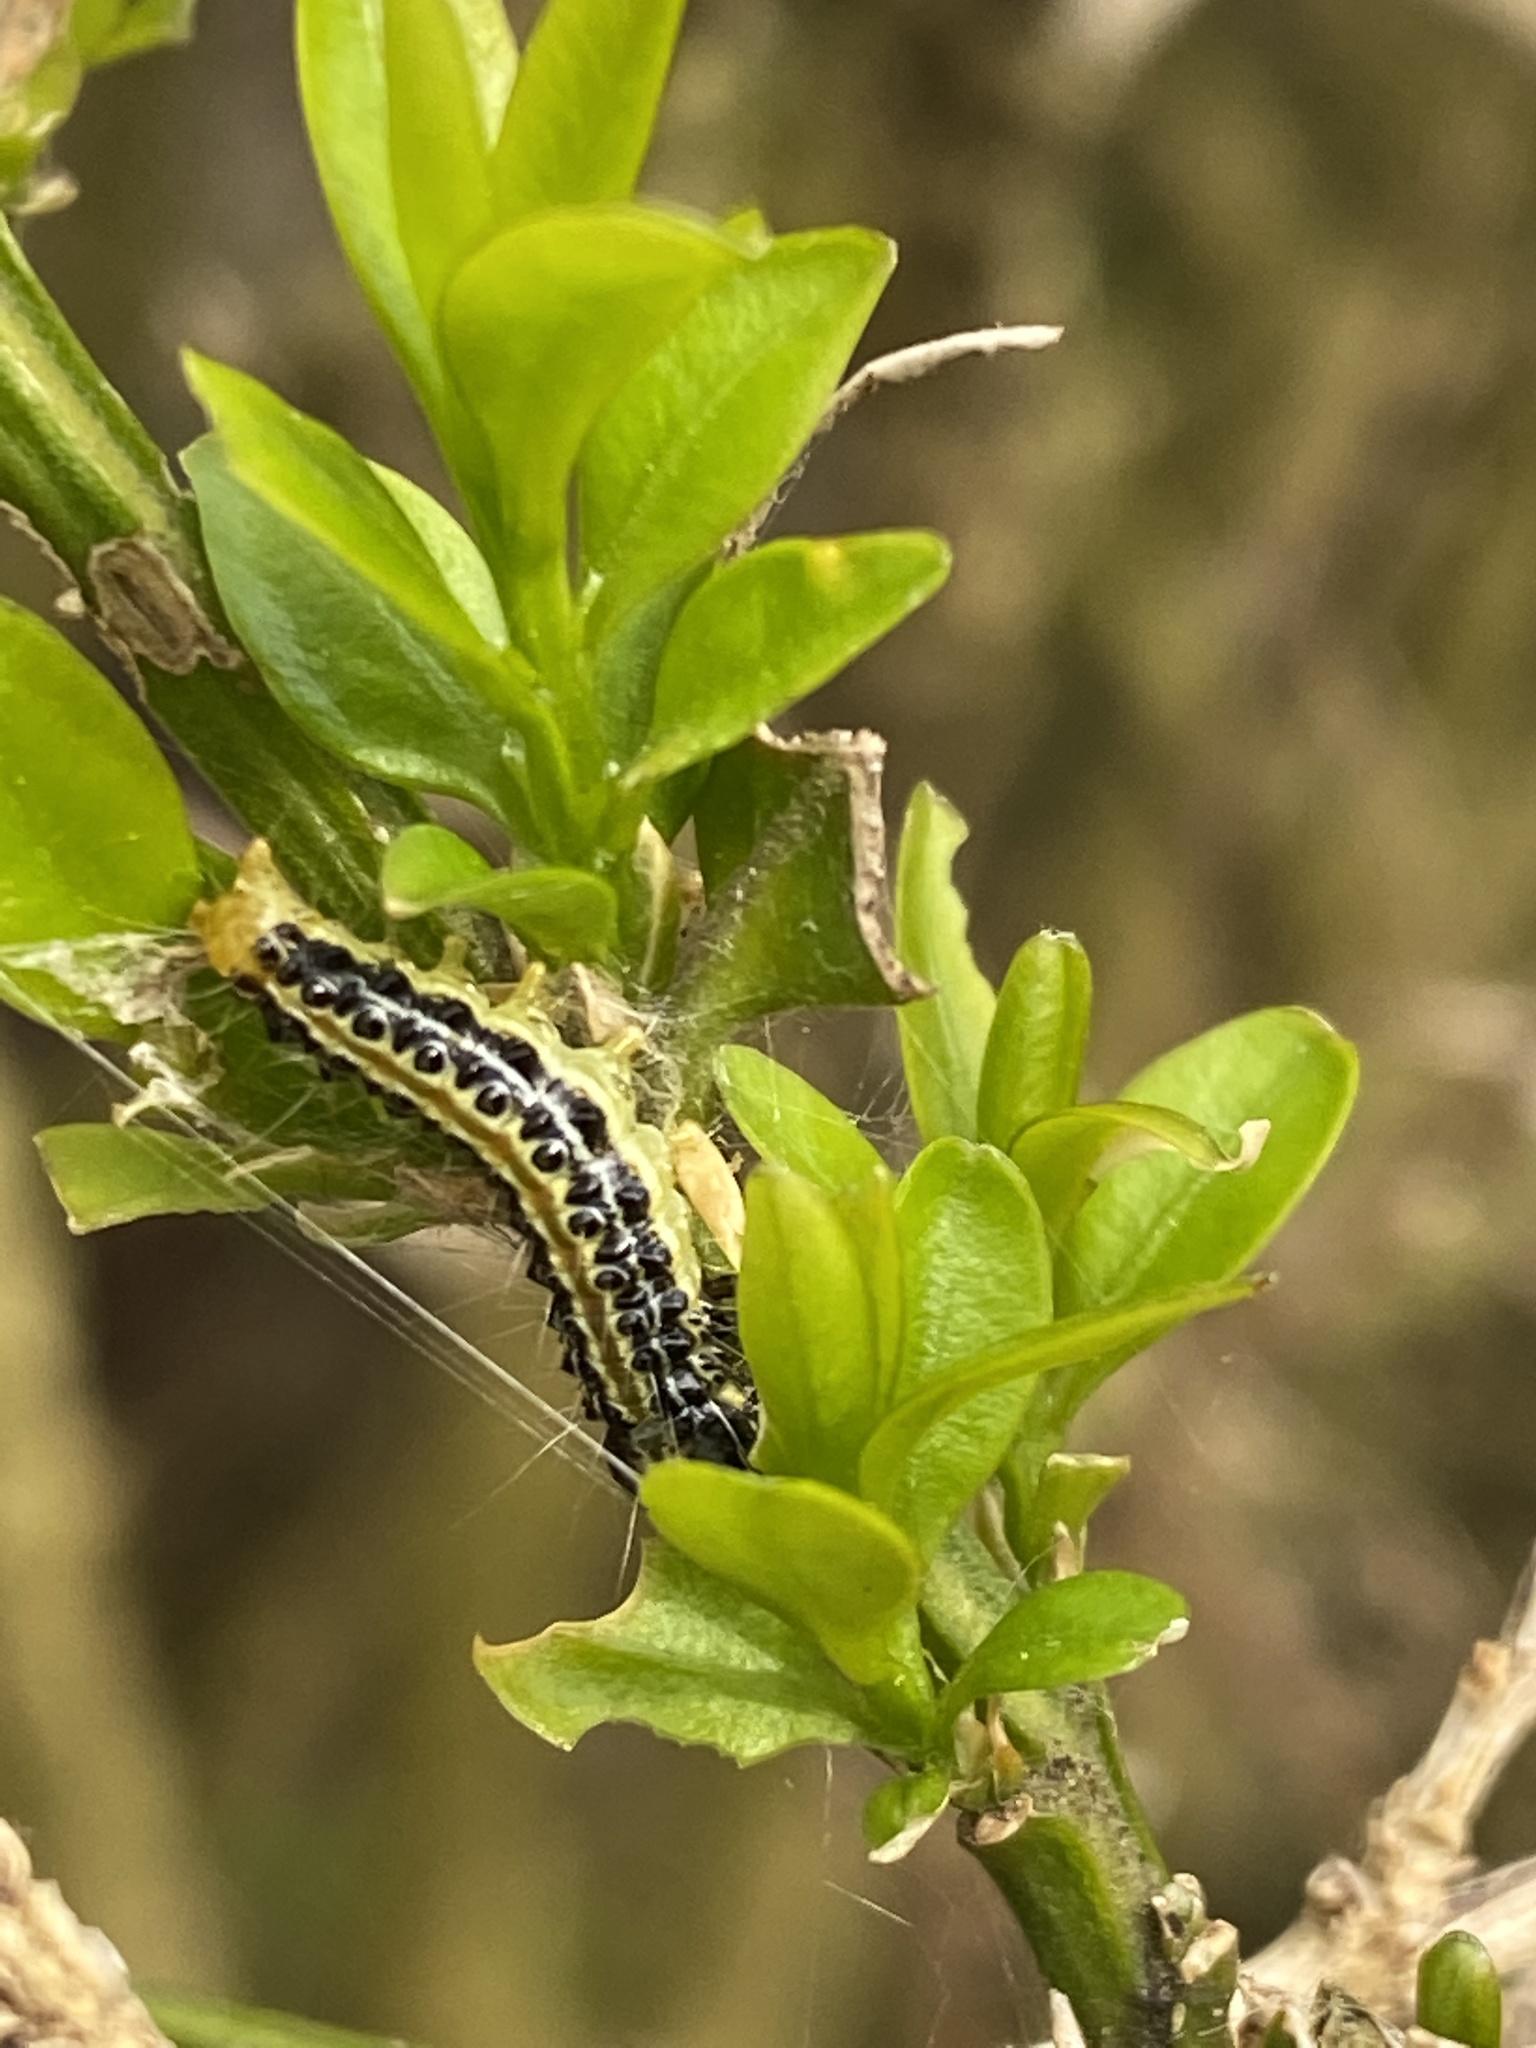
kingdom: Animalia
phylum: Arthropoda
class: Insecta
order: Lepidoptera
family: Crambidae
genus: Cydalima
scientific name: Cydalima perspectalis
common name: Box tree moth
